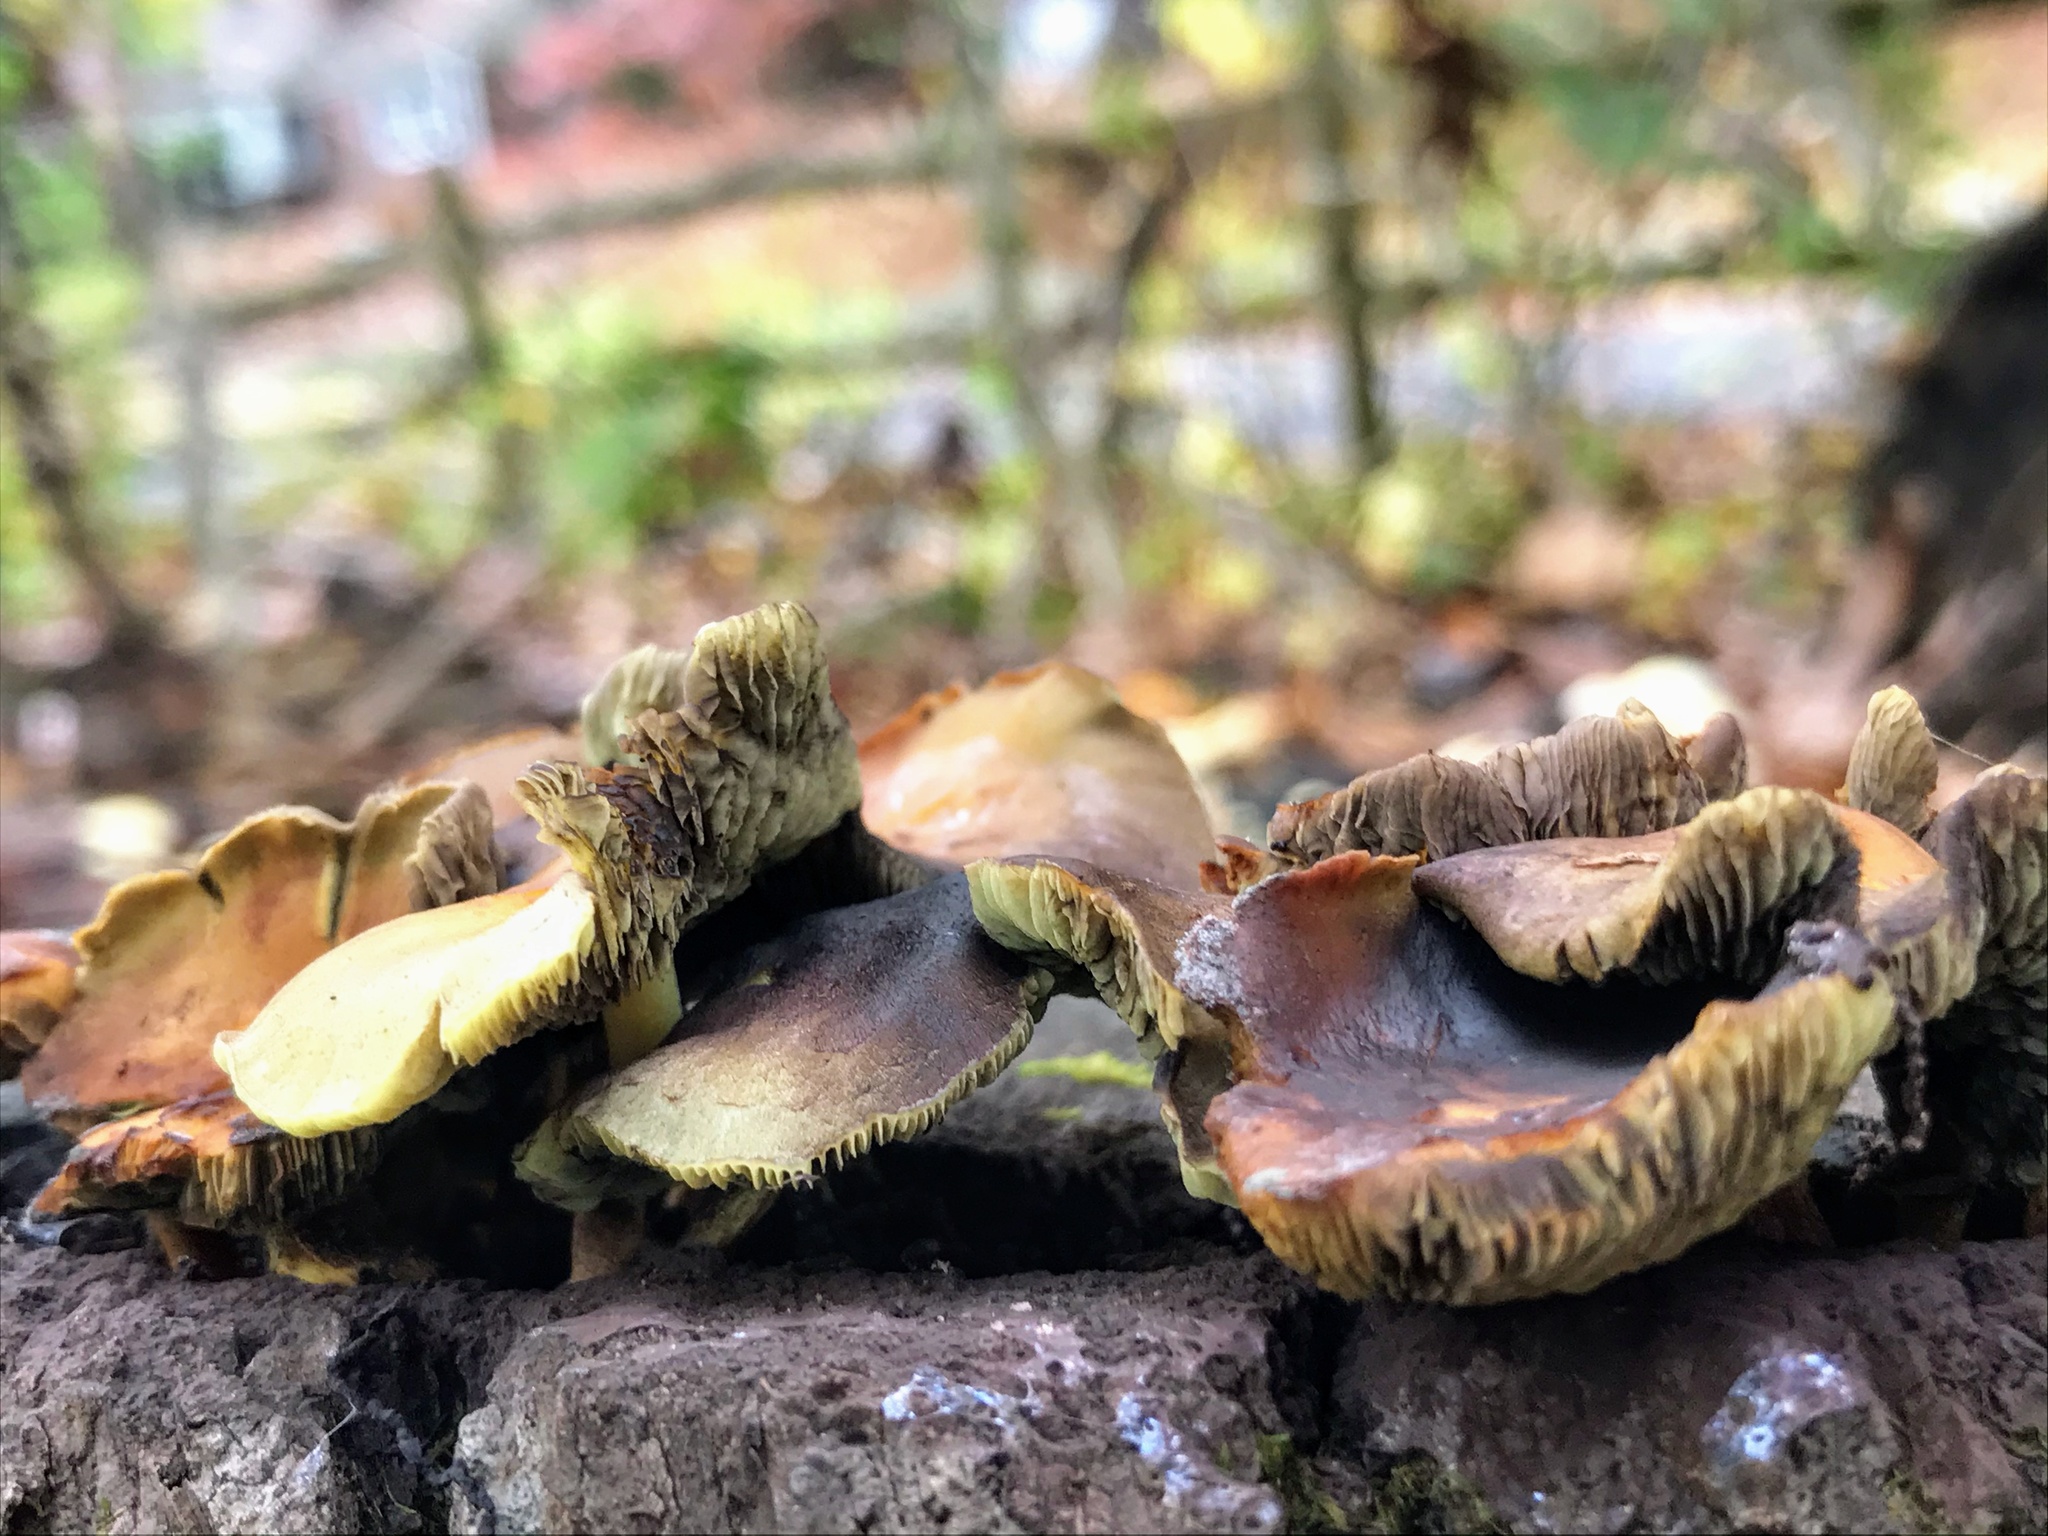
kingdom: Fungi
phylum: Basidiomycota
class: Agaricomycetes
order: Agaricales
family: Strophariaceae
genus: Hypholoma
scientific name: Hypholoma fasciculare
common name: Sulphur tuft
